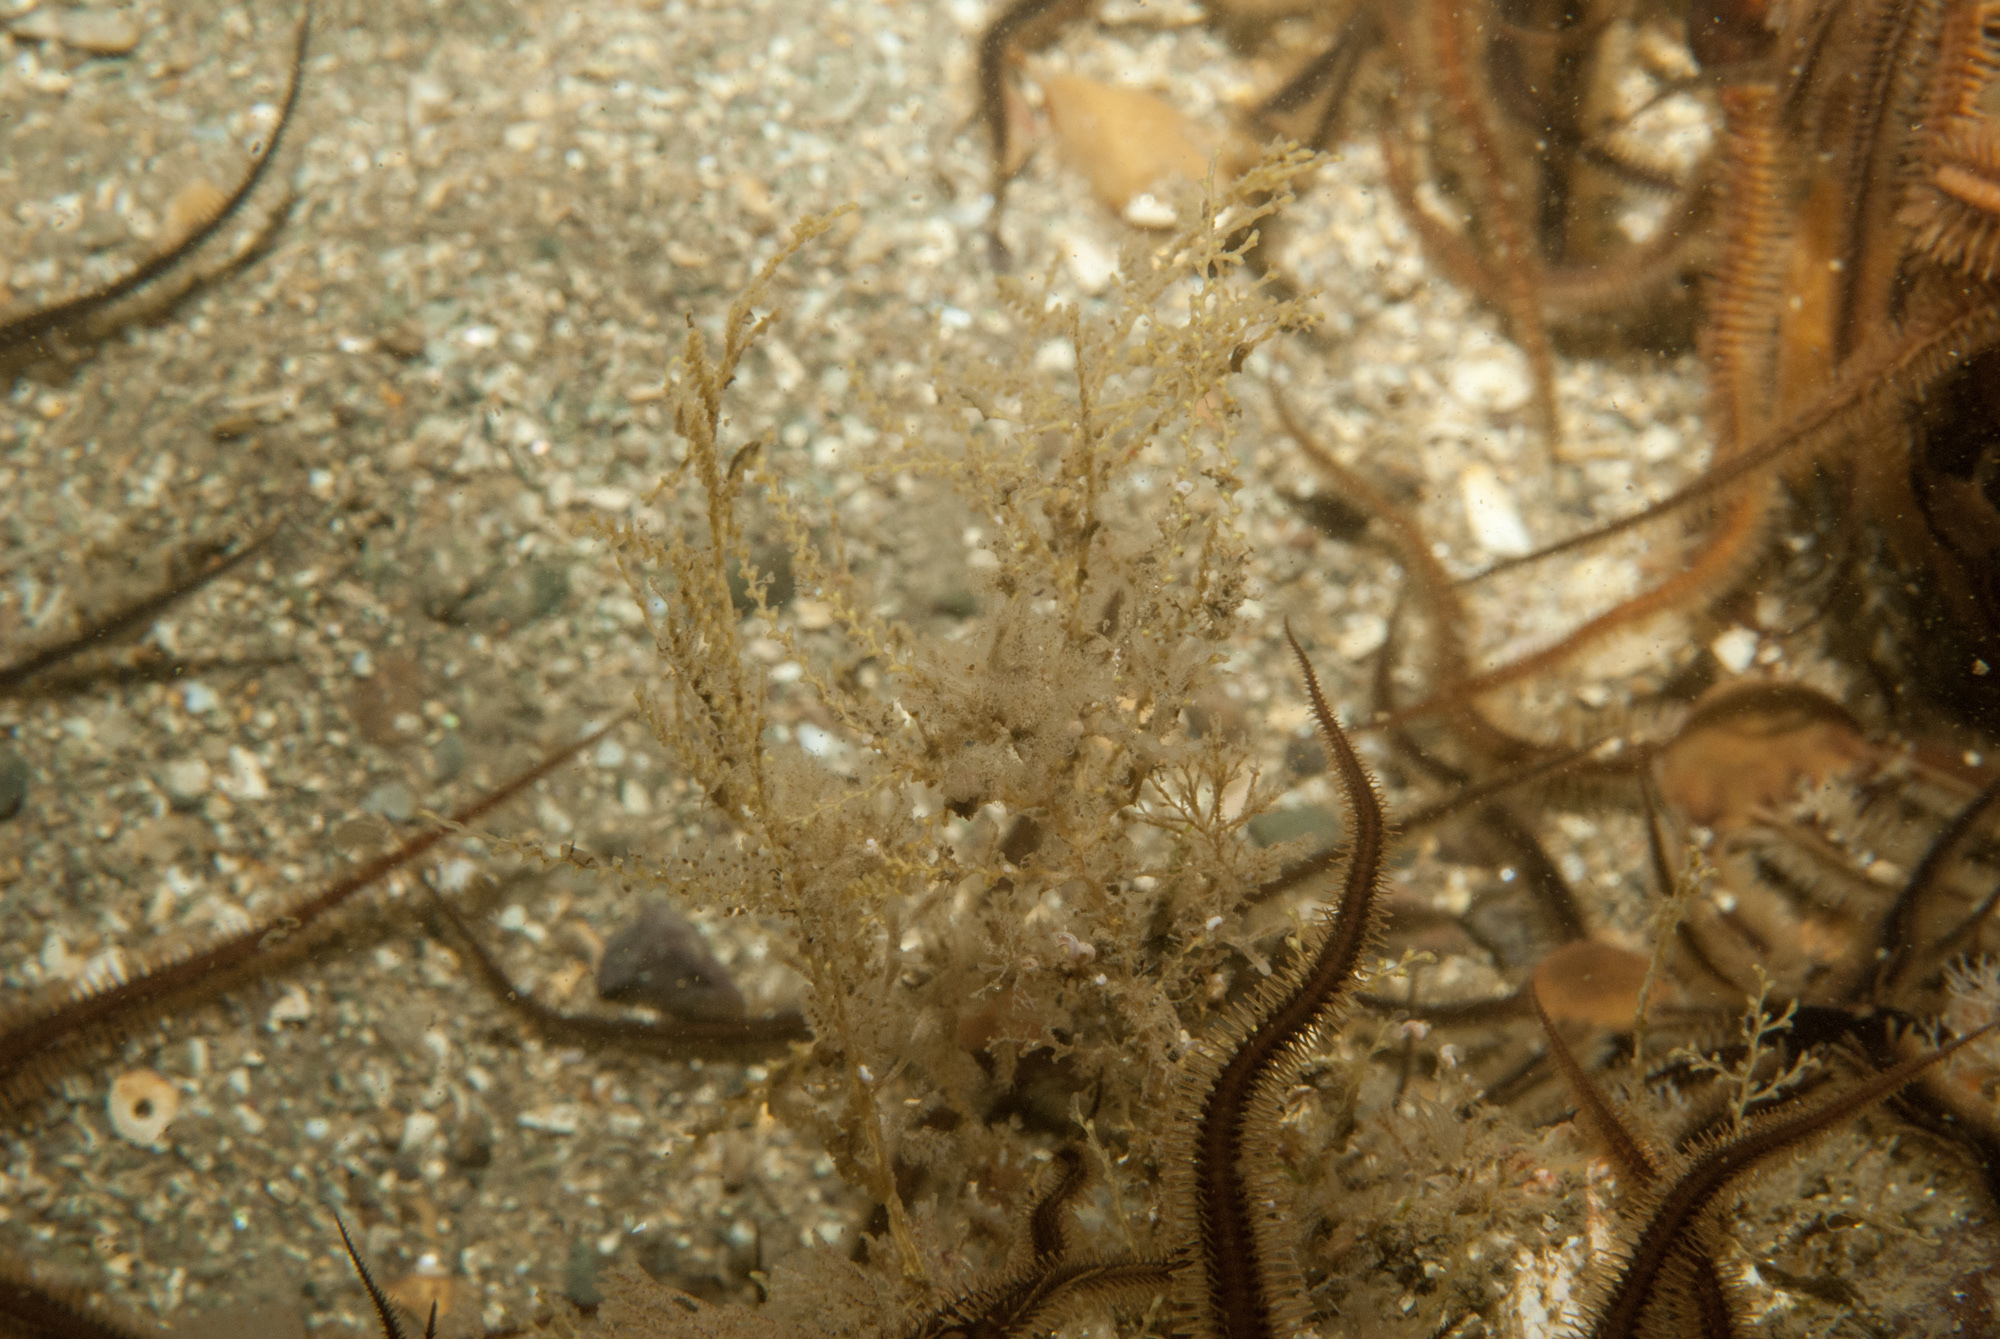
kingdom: Animalia
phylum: Cnidaria
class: Hydrozoa
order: Leptothecata
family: Sertularellidae
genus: Sertularella
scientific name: Sertularella polyzonias
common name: Great tooth hydroid
